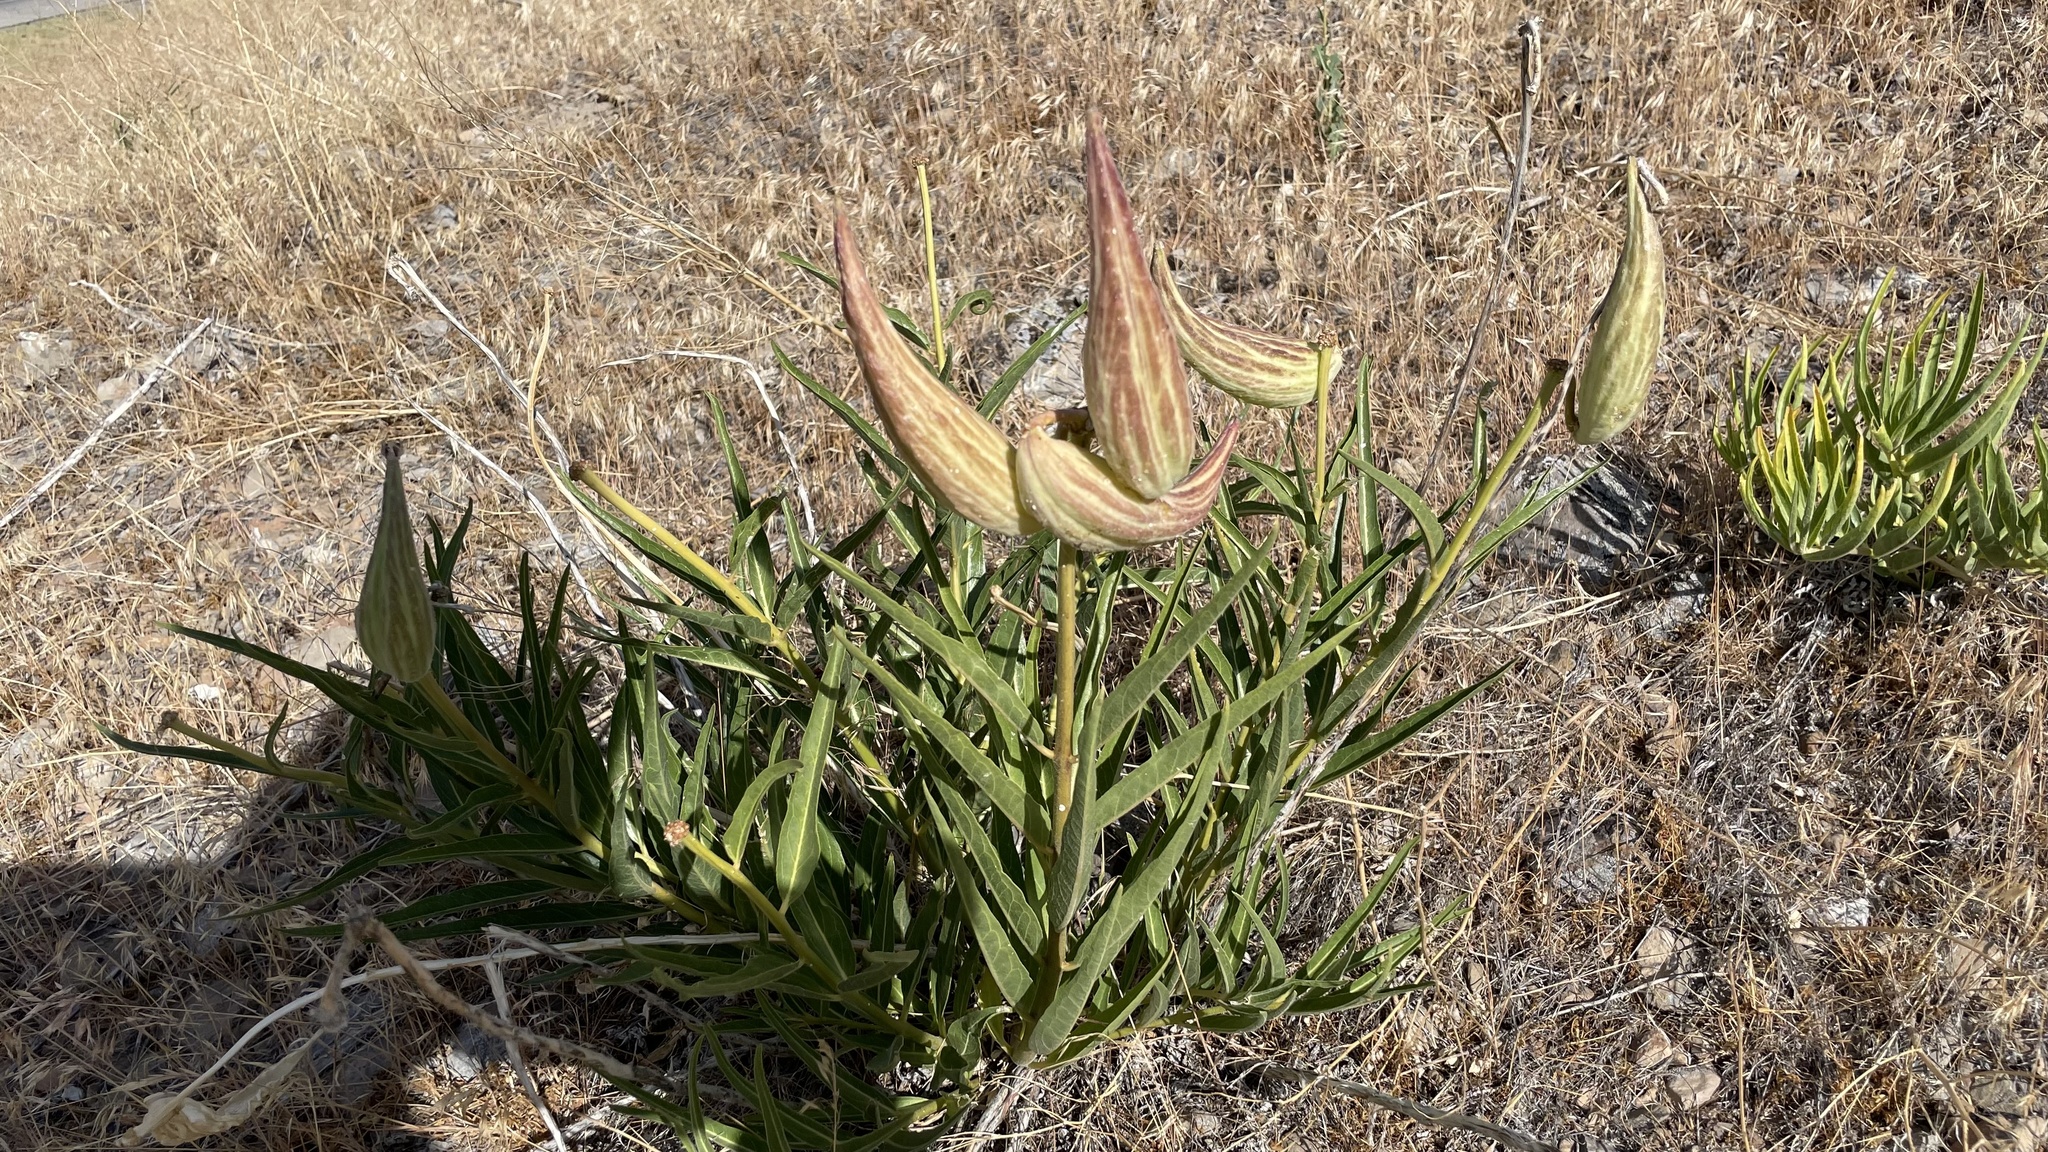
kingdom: Plantae
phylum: Tracheophyta
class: Magnoliopsida
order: Gentianales
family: Apocynaceae
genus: Asclepias
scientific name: Asclepias asperula
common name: Antelope horns
